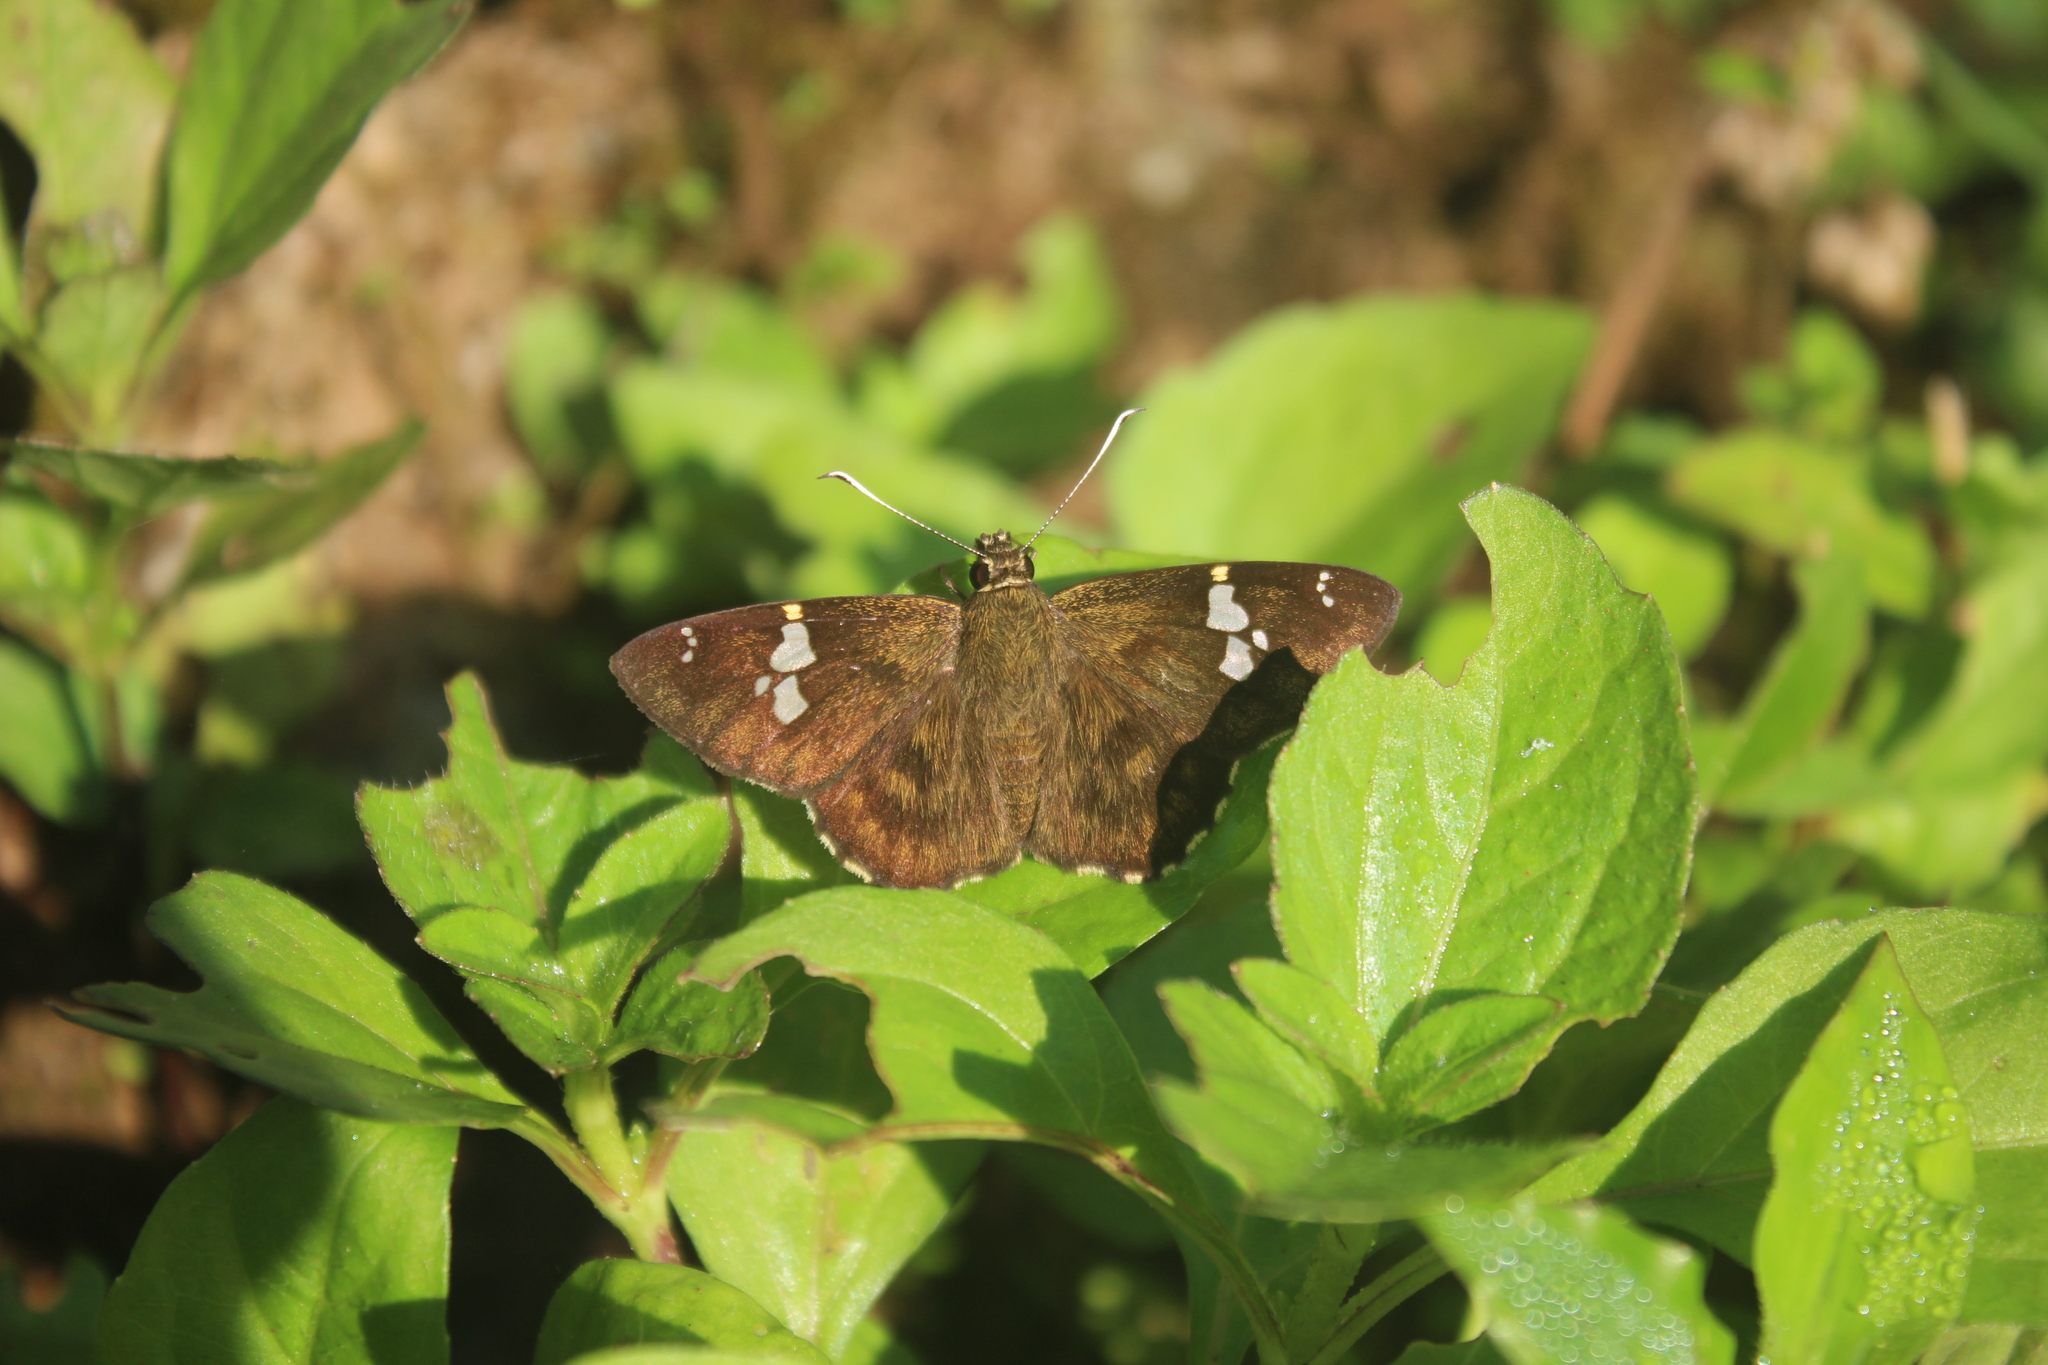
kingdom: Animalia
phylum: Arthropoda
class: Insecta
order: Lepidoptera
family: Hesperiidae
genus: Celaenorrhinus
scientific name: Celaenorrhinus leucocera
